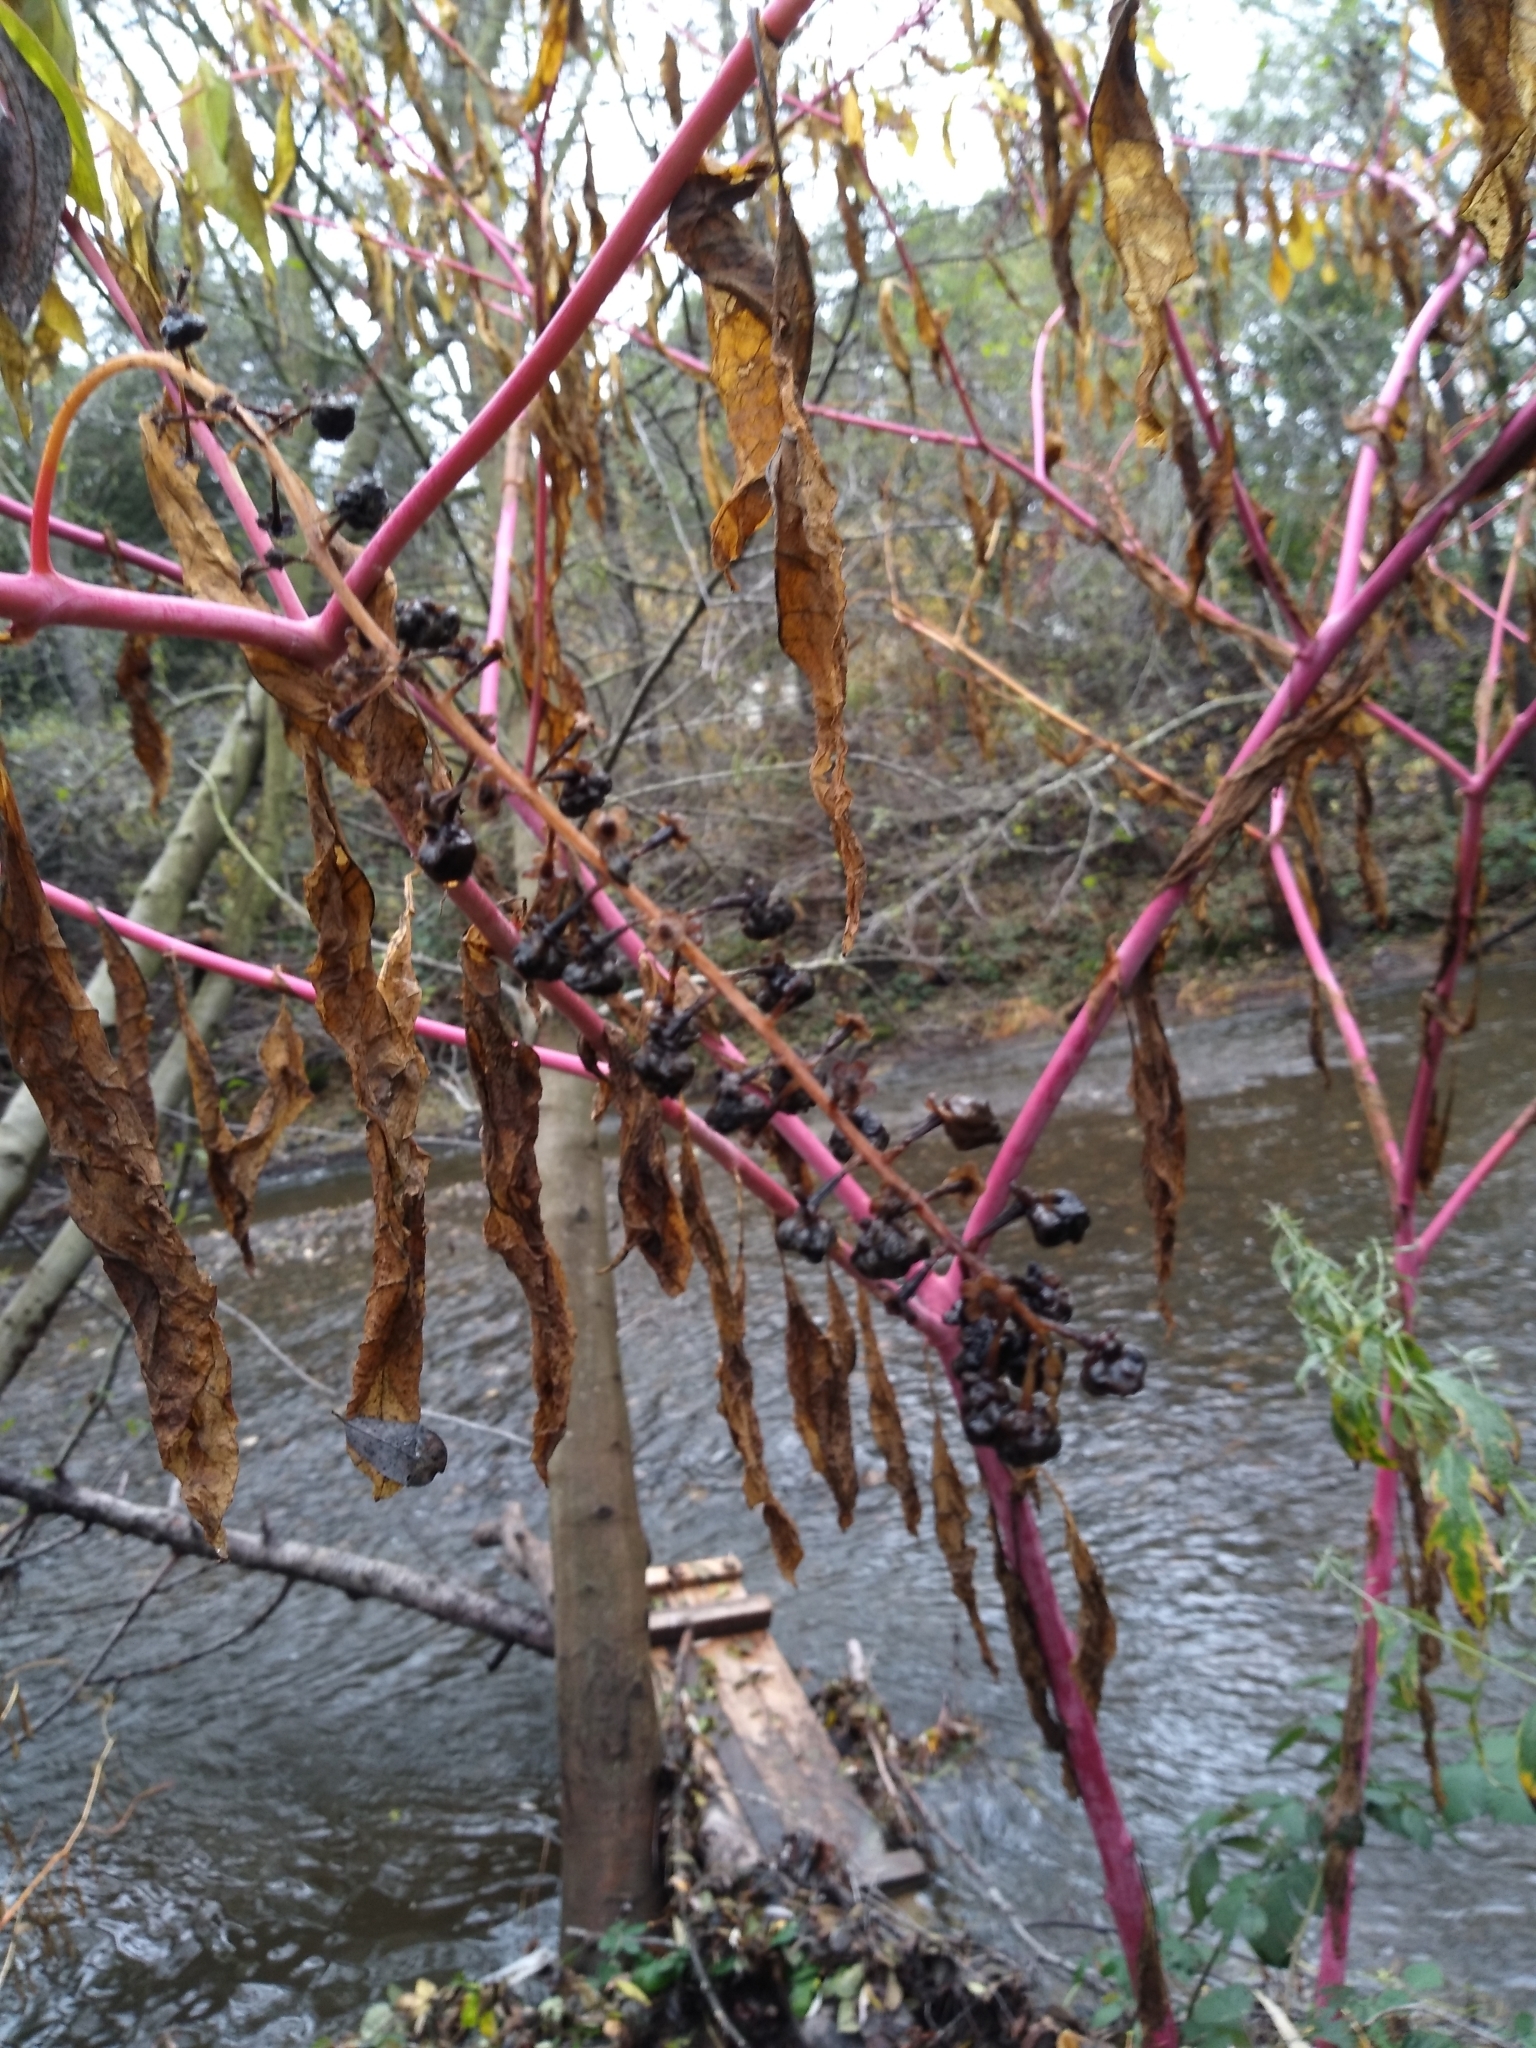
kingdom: Plantae
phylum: Tracheophyta
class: Magnoliopsida
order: Caryophyllales
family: Phytolaccaceae
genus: Phytolacca
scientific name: Phytolacca americana
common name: American pokeweed
